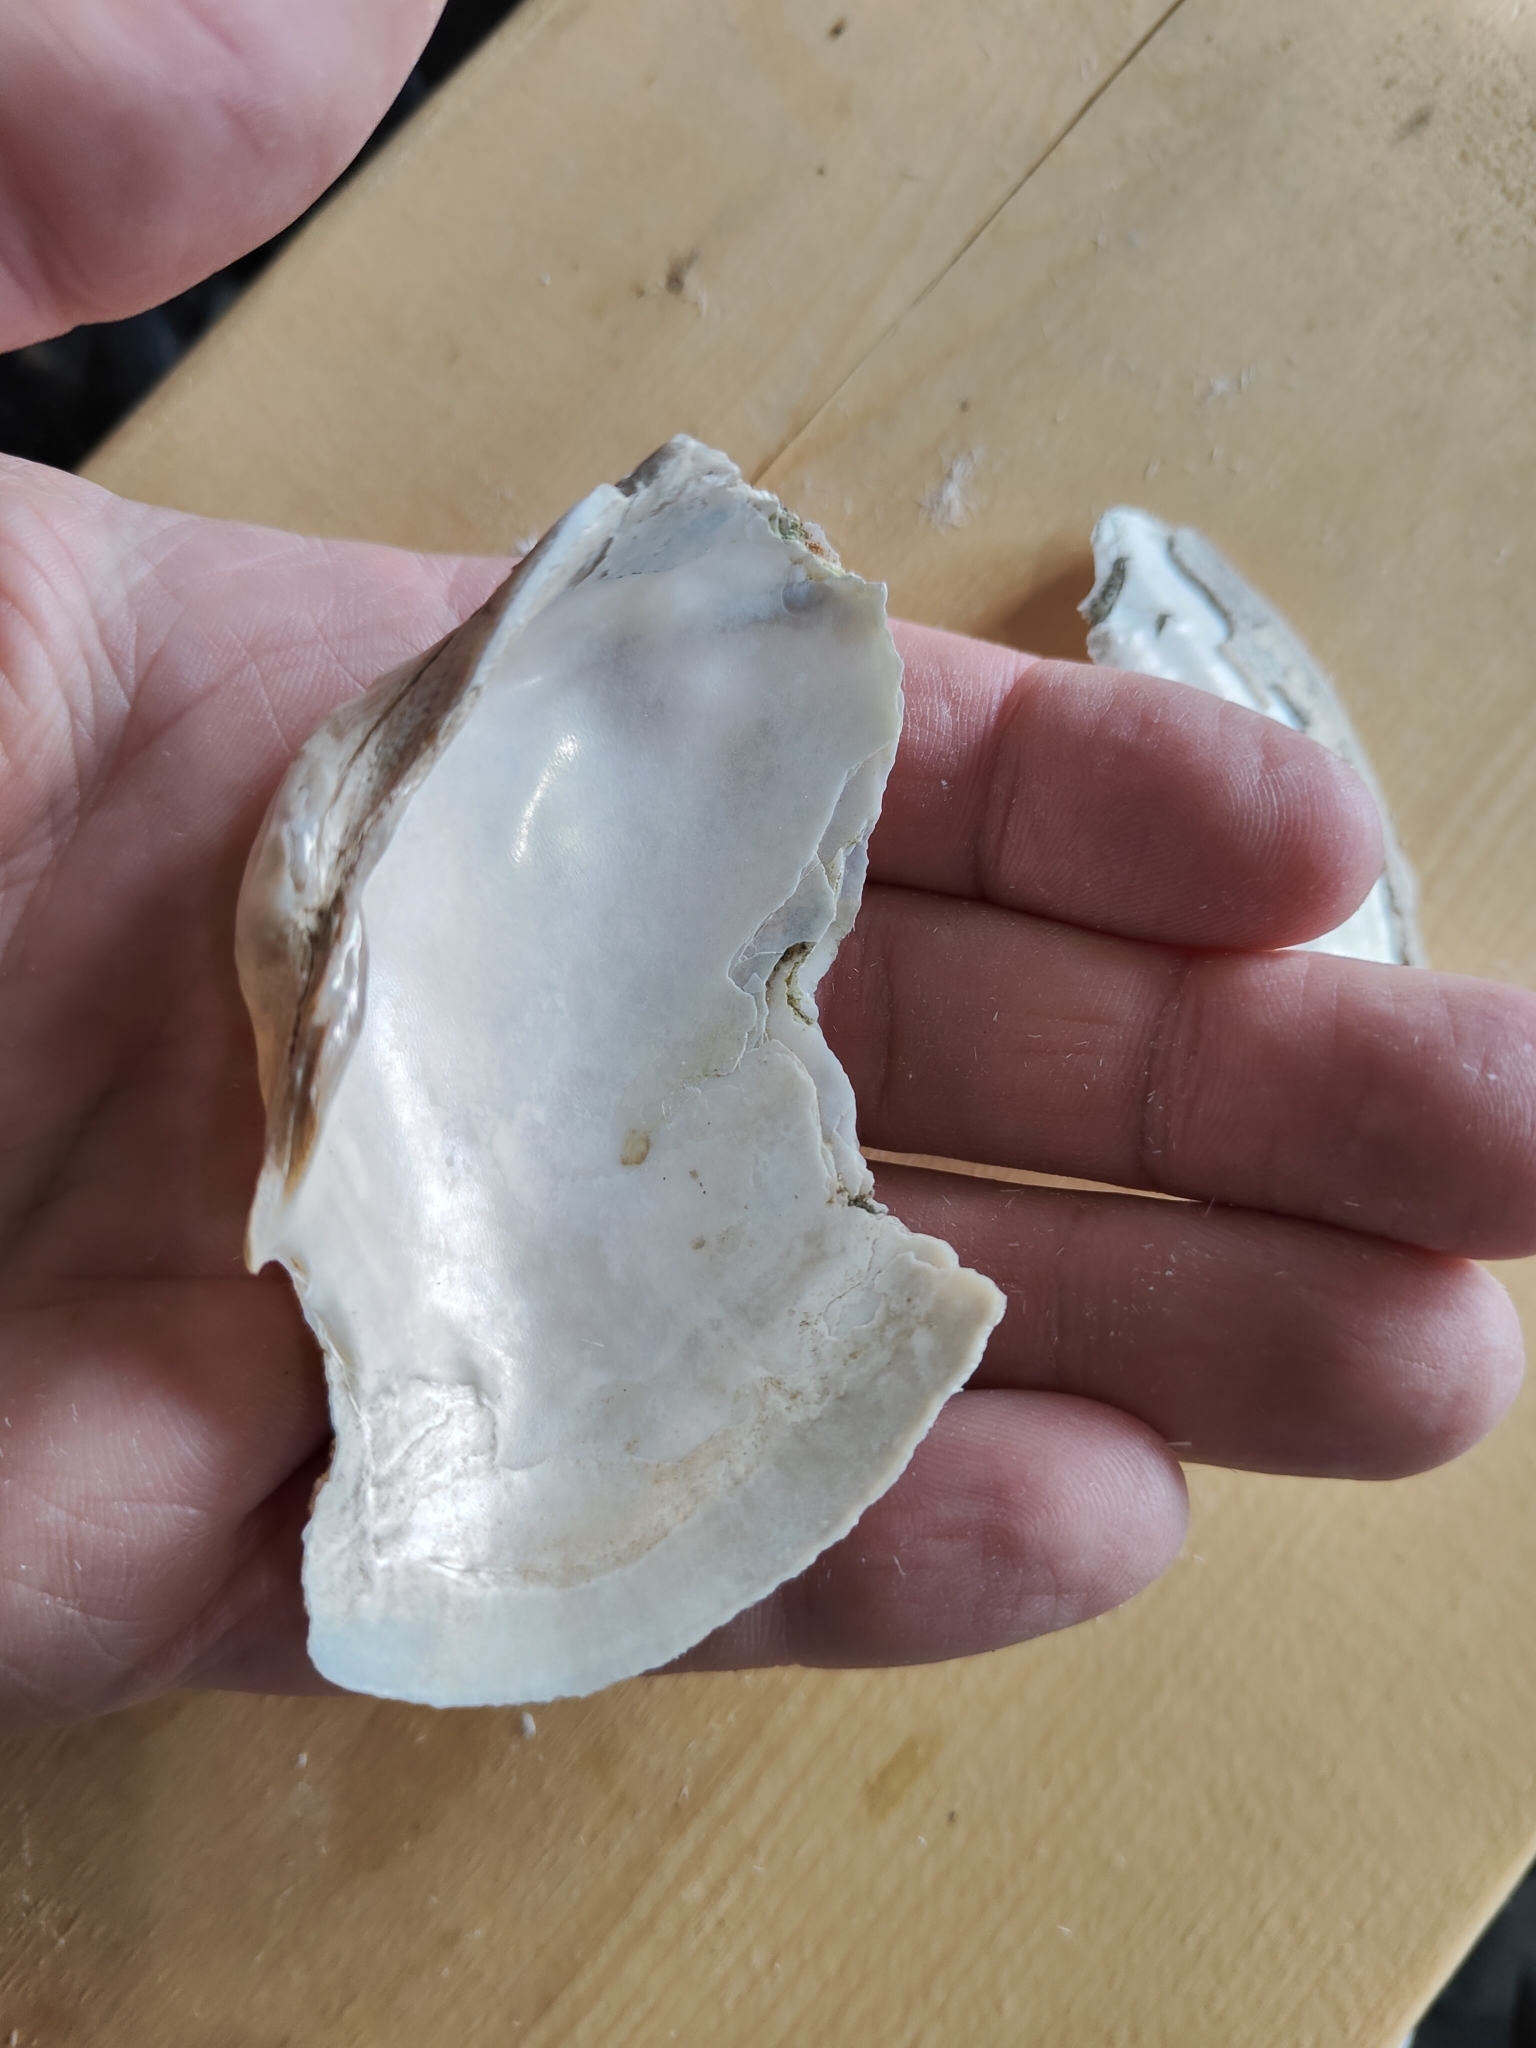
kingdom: Animalia
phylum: Mollusca
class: Bivalvia
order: Unionida
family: Unionidae
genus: Alasmidonta
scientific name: Alasmidonta marginata
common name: Elktoe
